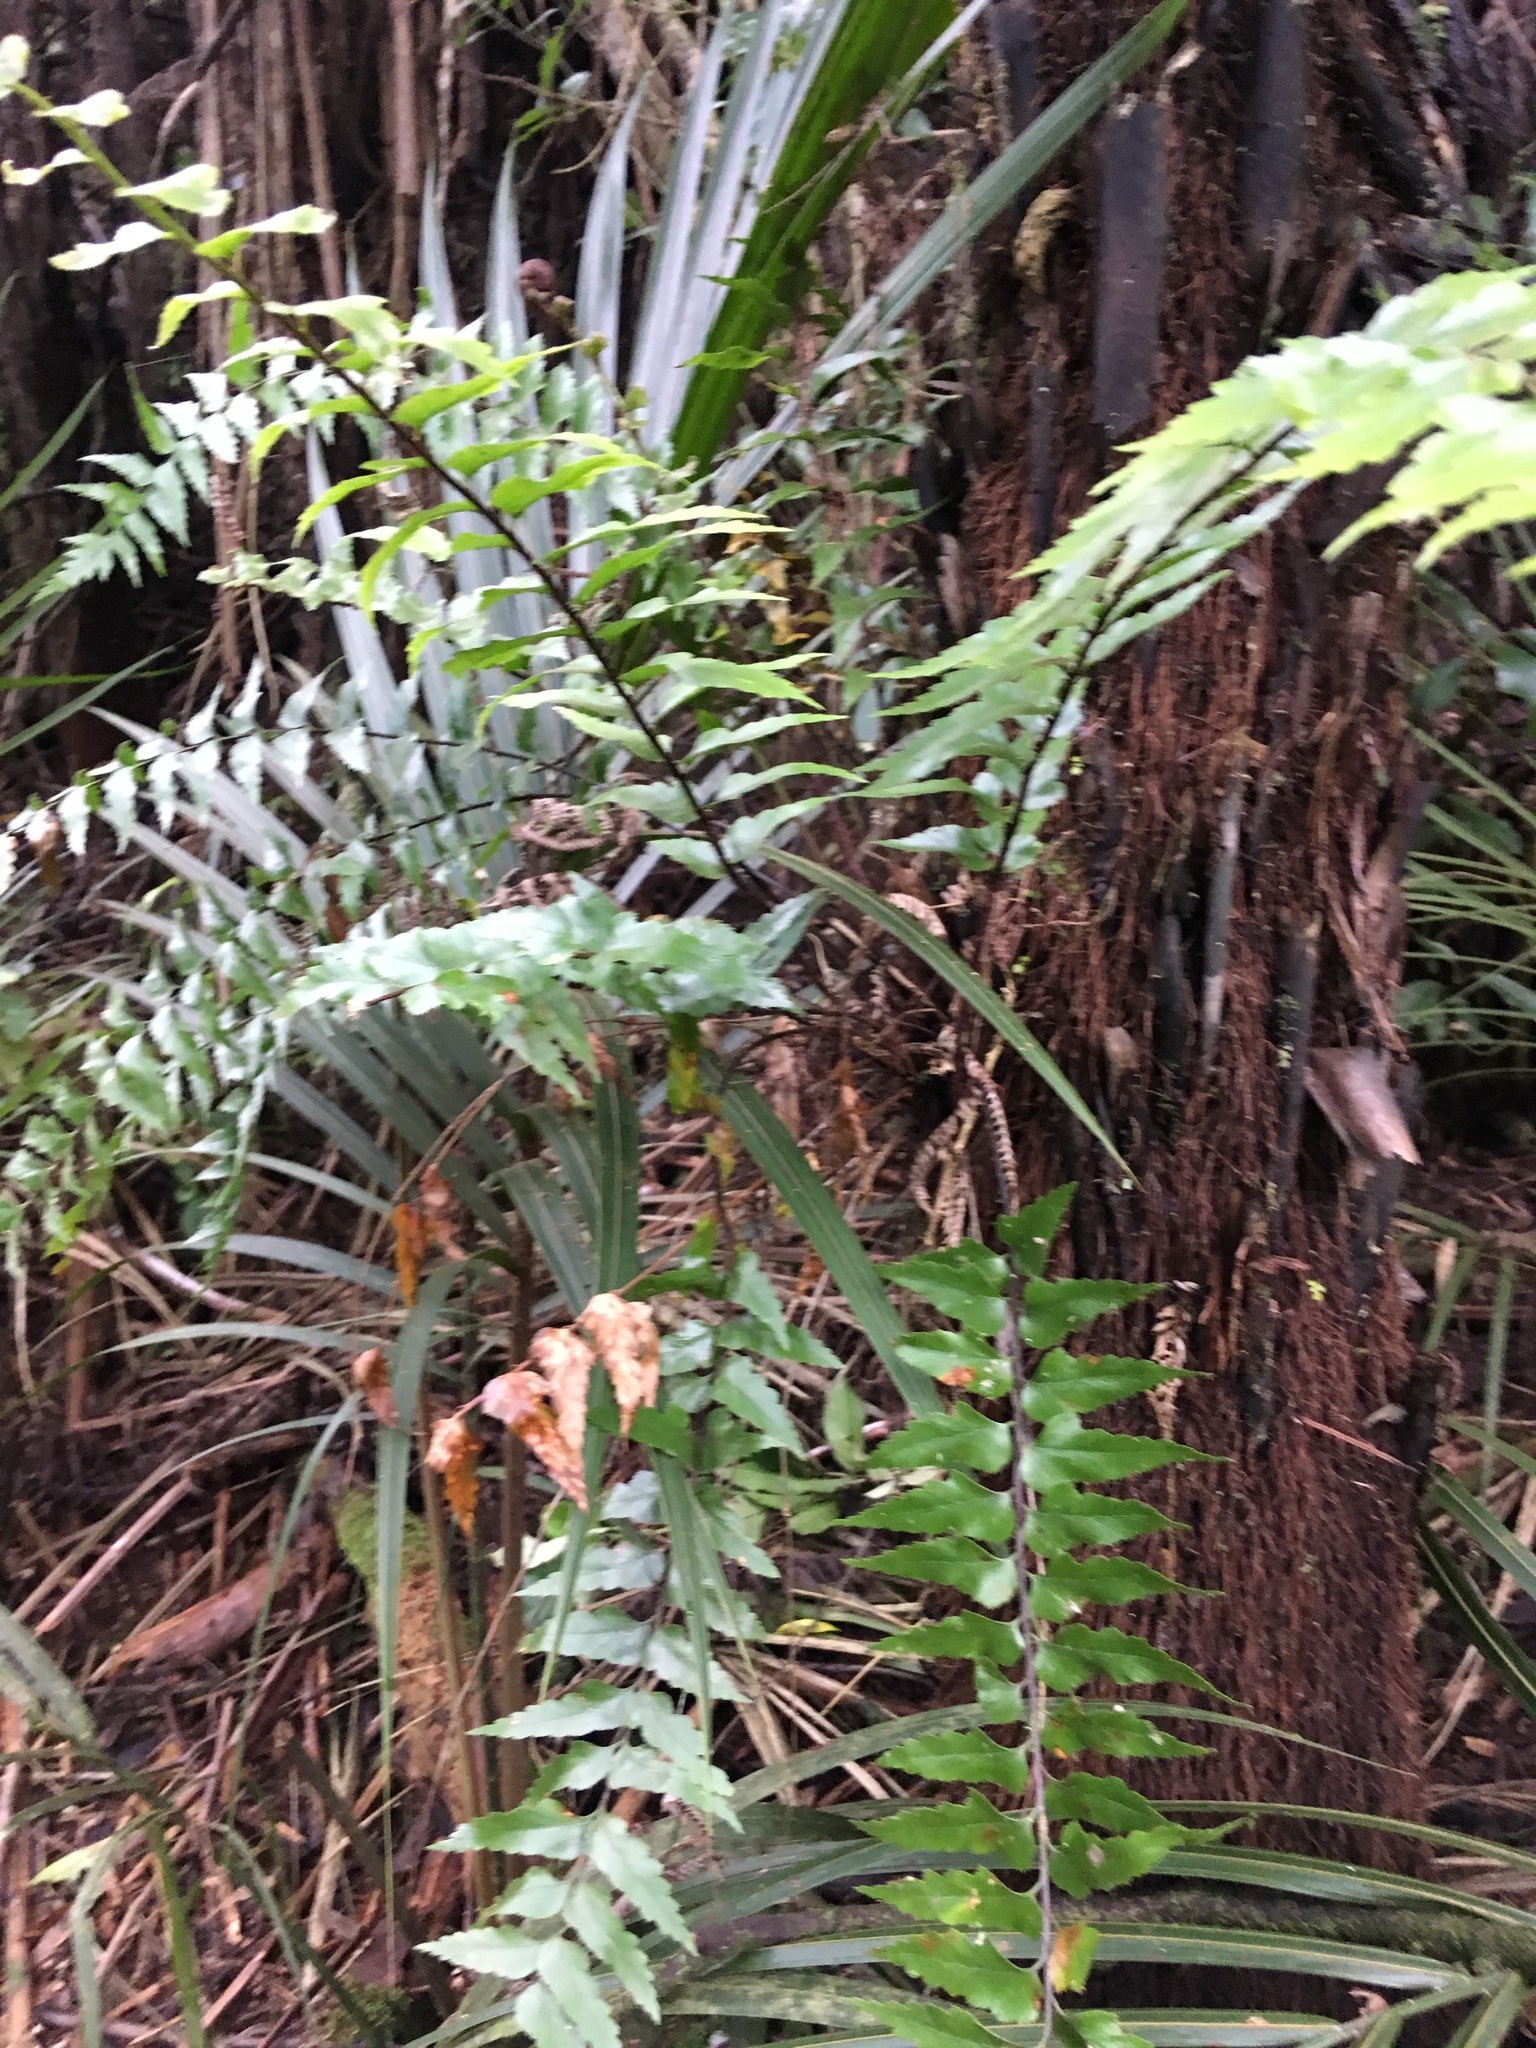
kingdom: Plantae
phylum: Tracheophyta
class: Polypodiopsida
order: Polypodiales
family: Aspleniaceae
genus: Asplenium
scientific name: Asplenium polyodon
